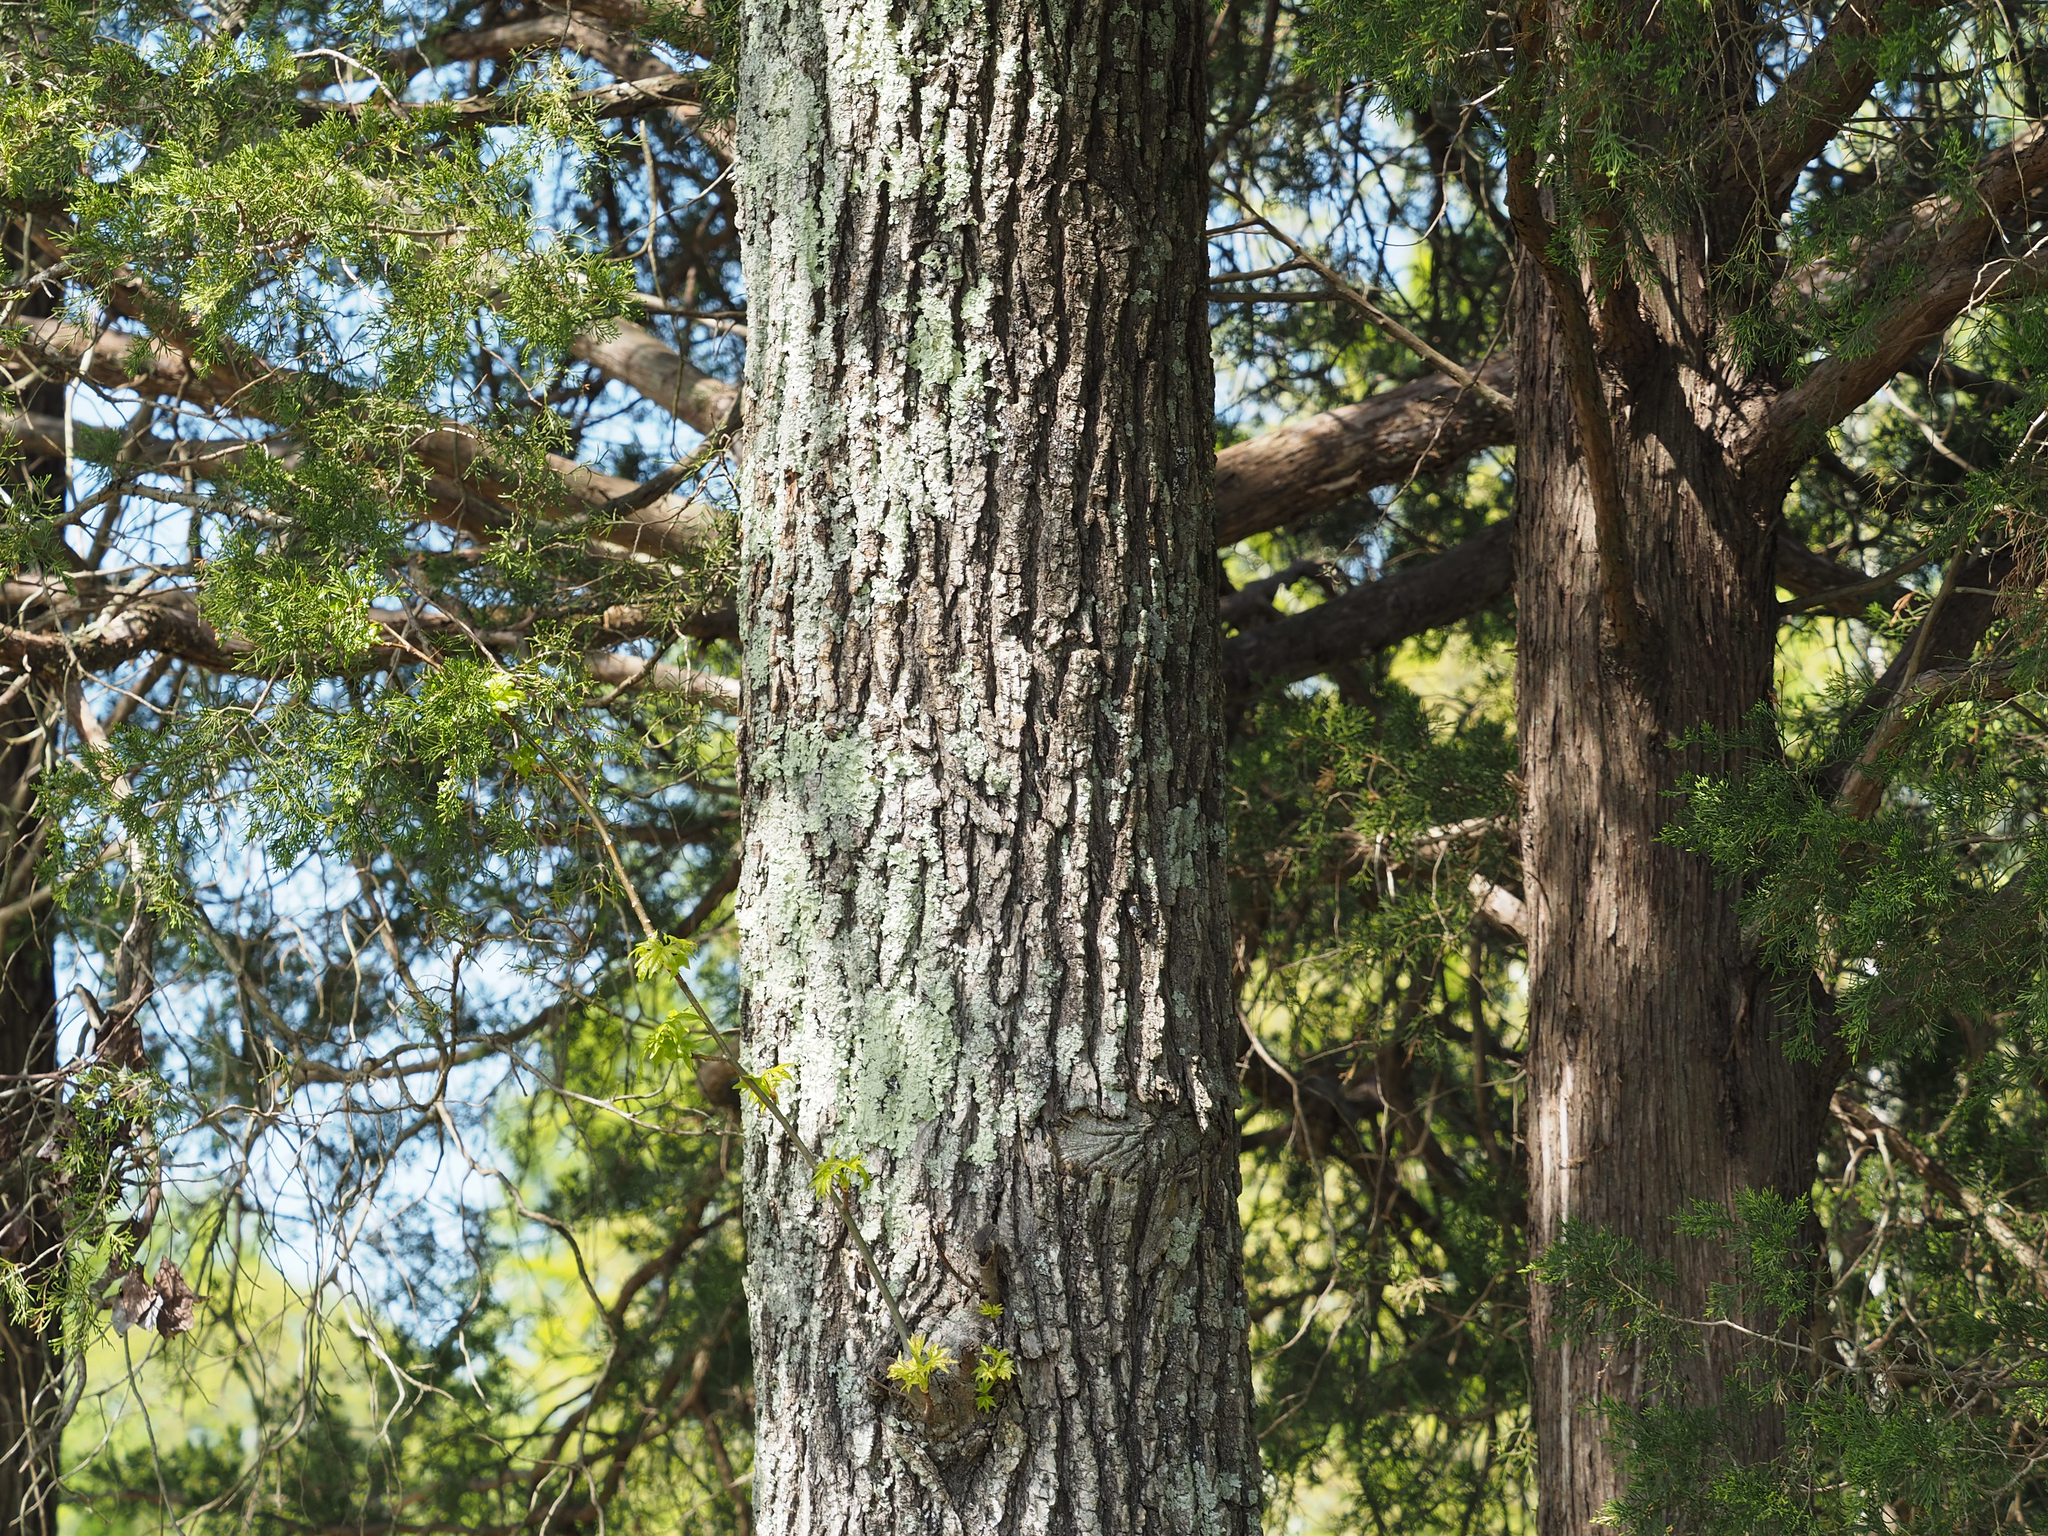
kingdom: Plantae
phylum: Tracheophyta
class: Magnoliopsida
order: Saxifragales
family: Altingiaceae
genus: Liquidambar
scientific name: Liquidambar styraciflua
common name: Sweet gum
